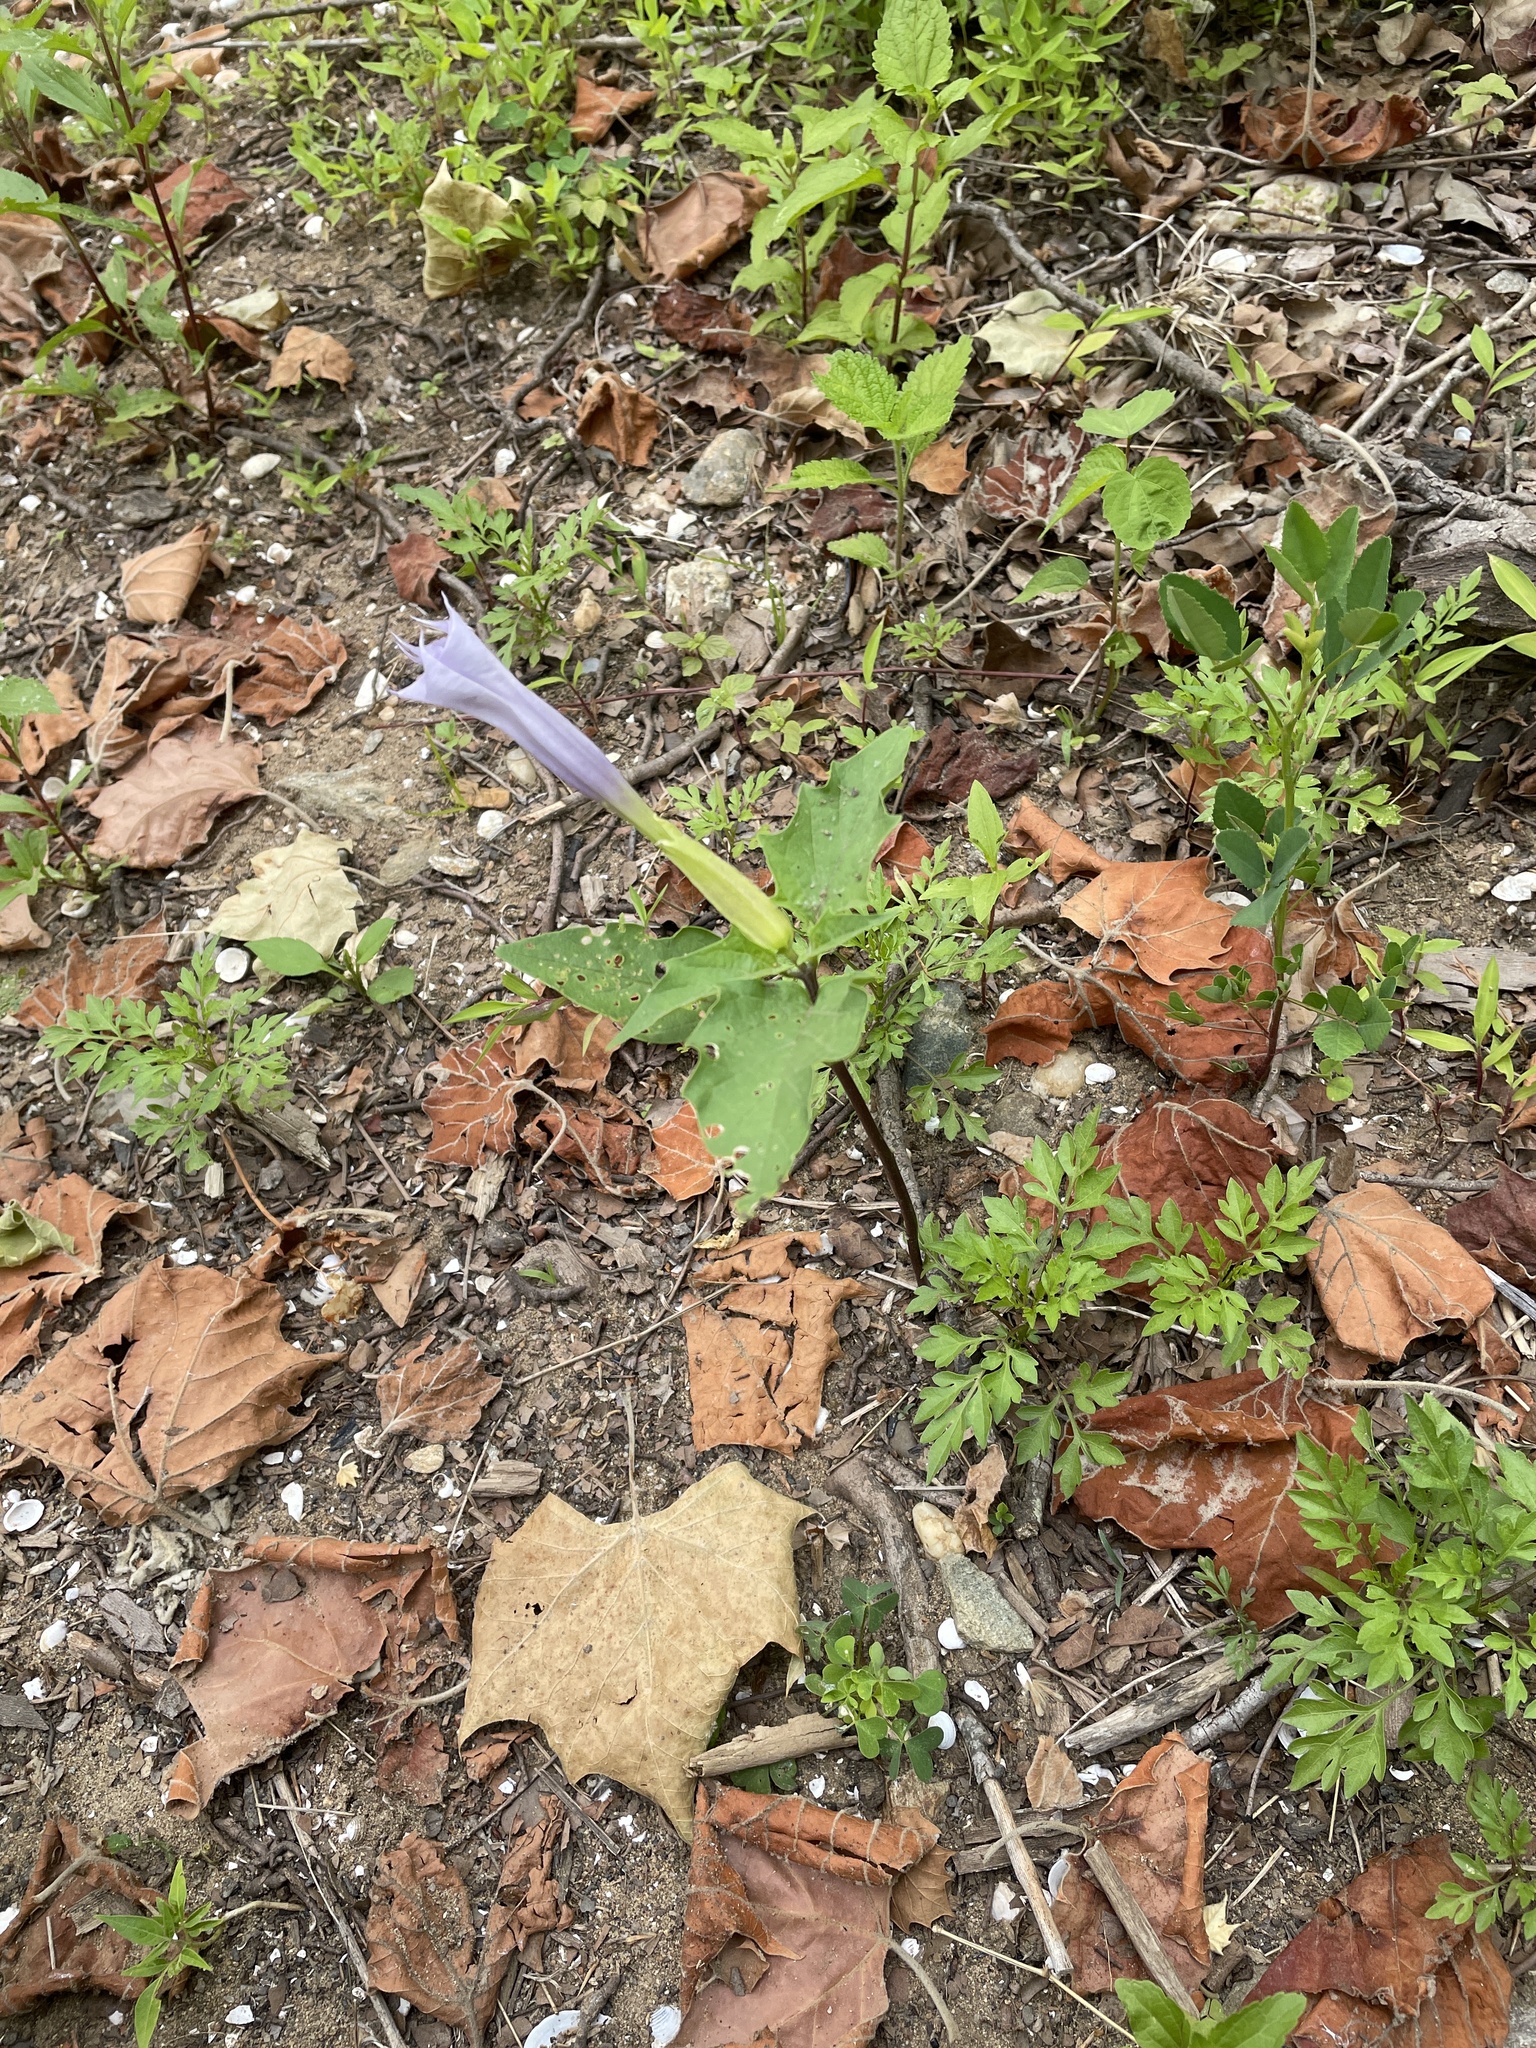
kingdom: Plantae
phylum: Tracheophyta
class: Magnoliopsida
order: Solanales
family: Solanaceae
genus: Datura
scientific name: Datura stramonium
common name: Thorn-apple
